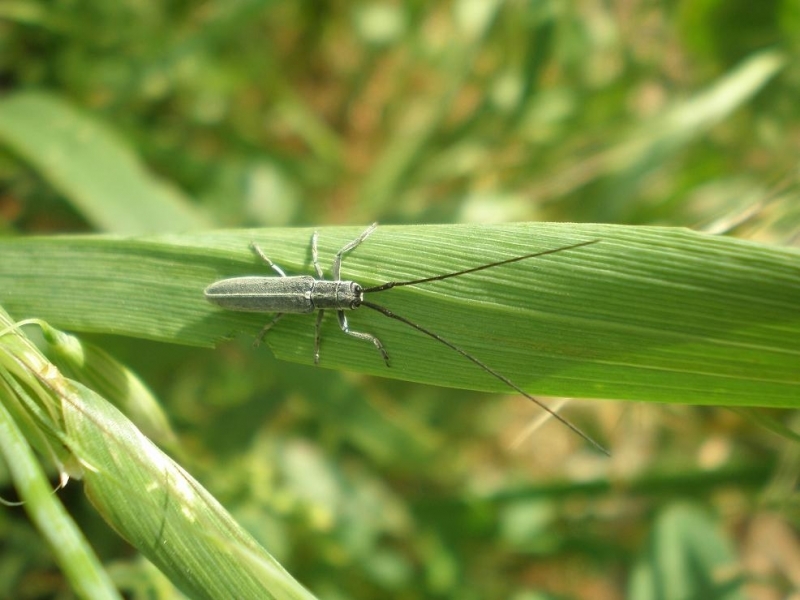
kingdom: Animalia
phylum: Arthropoda
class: Insecta
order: Coleoptera
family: Cerambycidae
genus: Calamobius
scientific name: Calamobius filum
